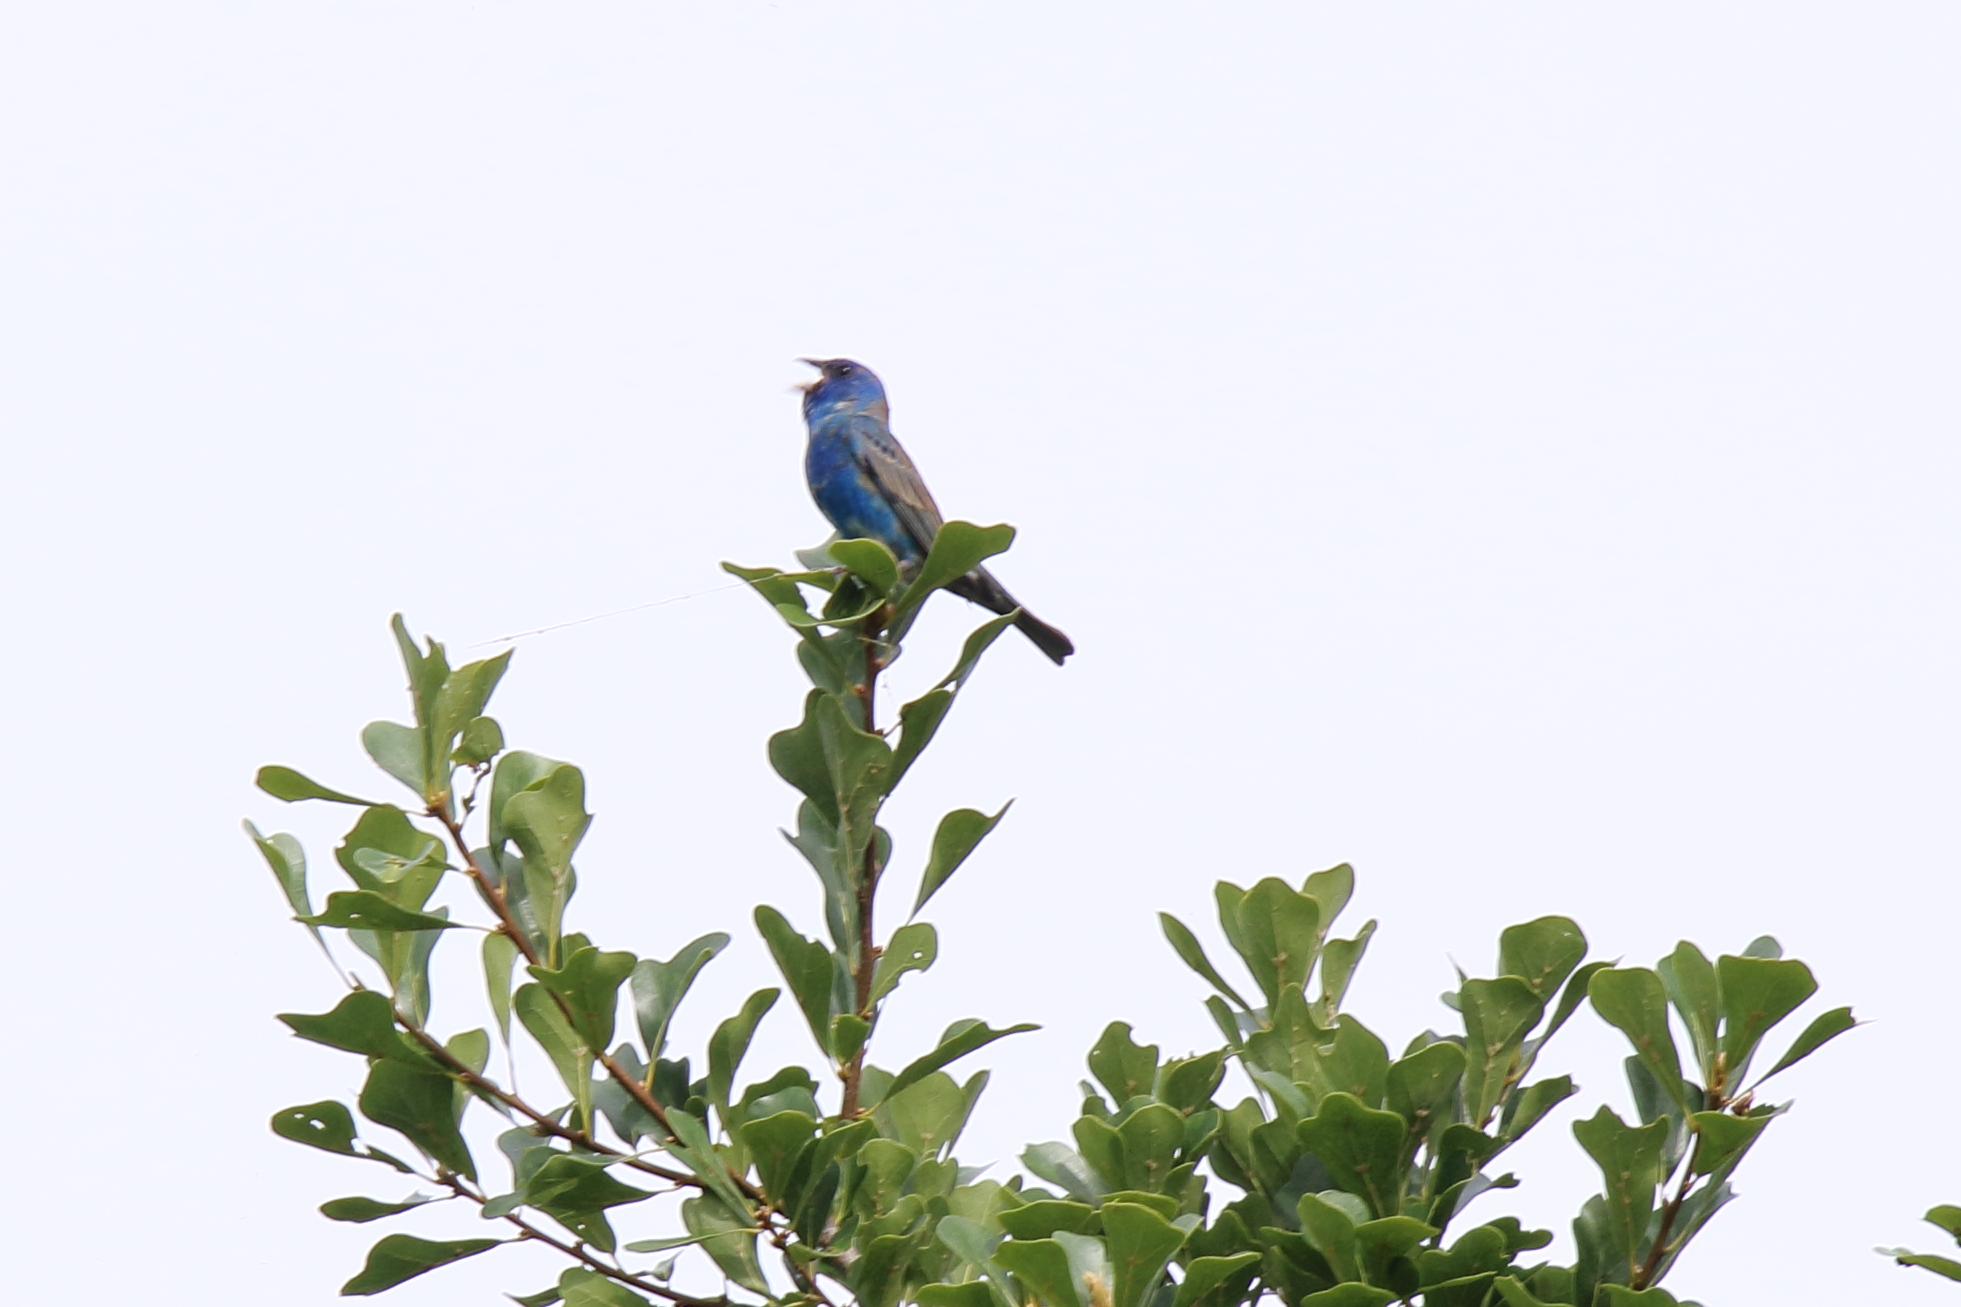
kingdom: Animalia
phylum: Chordata
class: Aves
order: Passeriformes
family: Cardinalidae
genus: Passerina
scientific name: Passerina cyanea
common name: Indigo bunting
